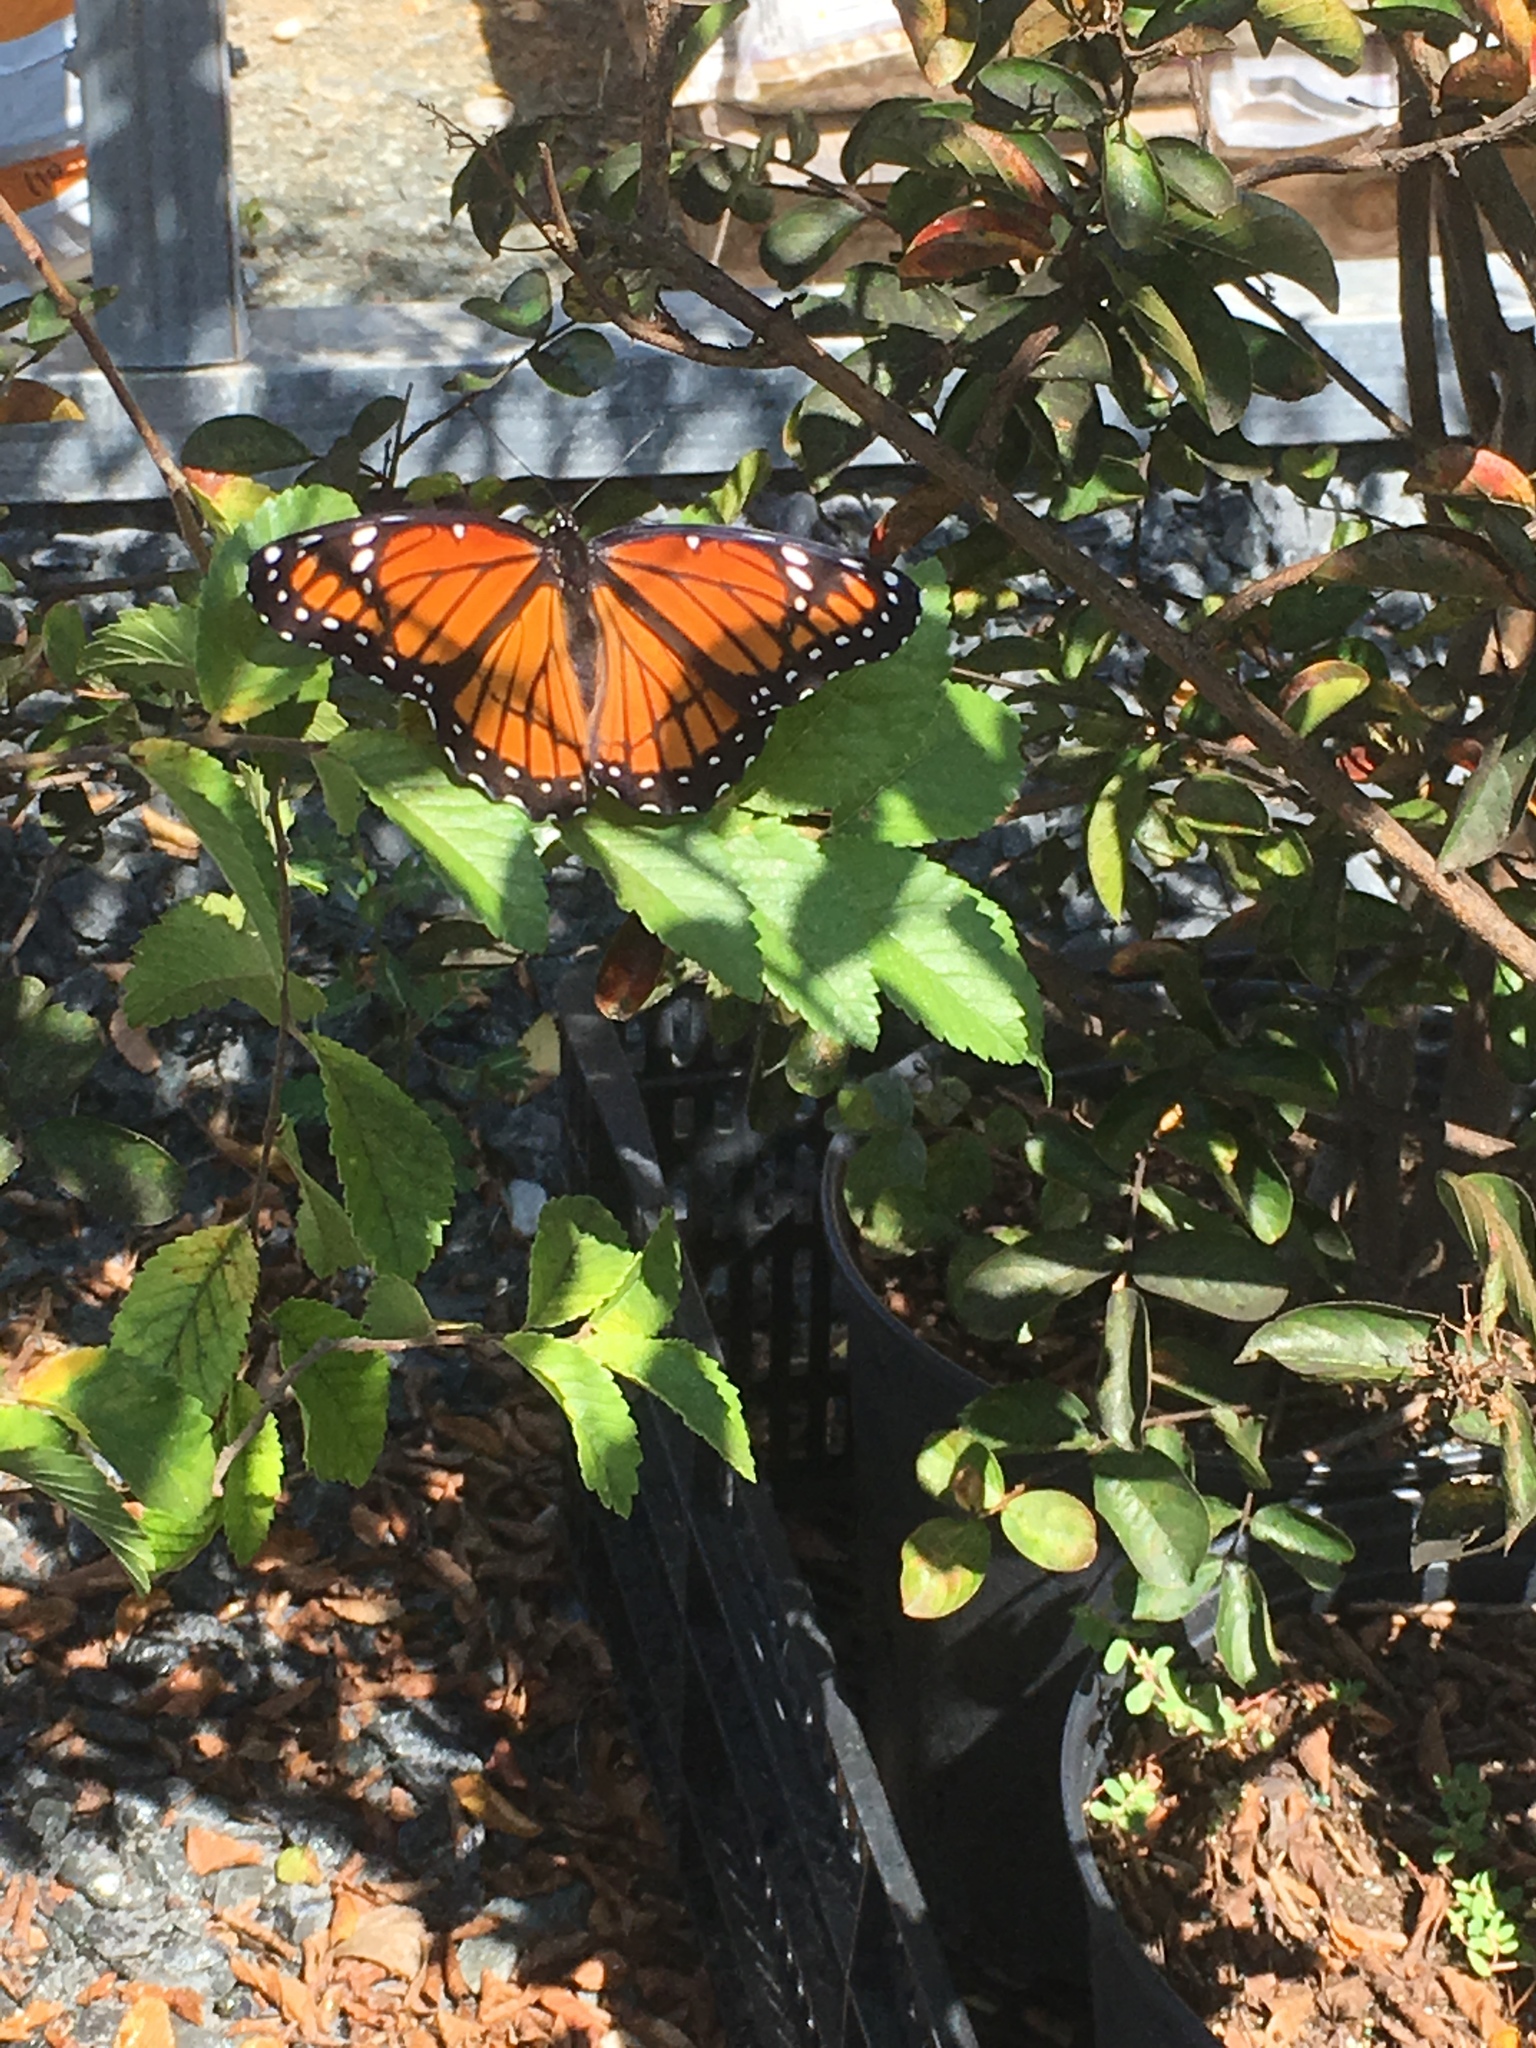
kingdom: Animalia
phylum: Arthropoda
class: Insecta
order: Lepidoptera
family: Nymphalidae
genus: Limenitis
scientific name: Limenitis archippus
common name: Viceroy
